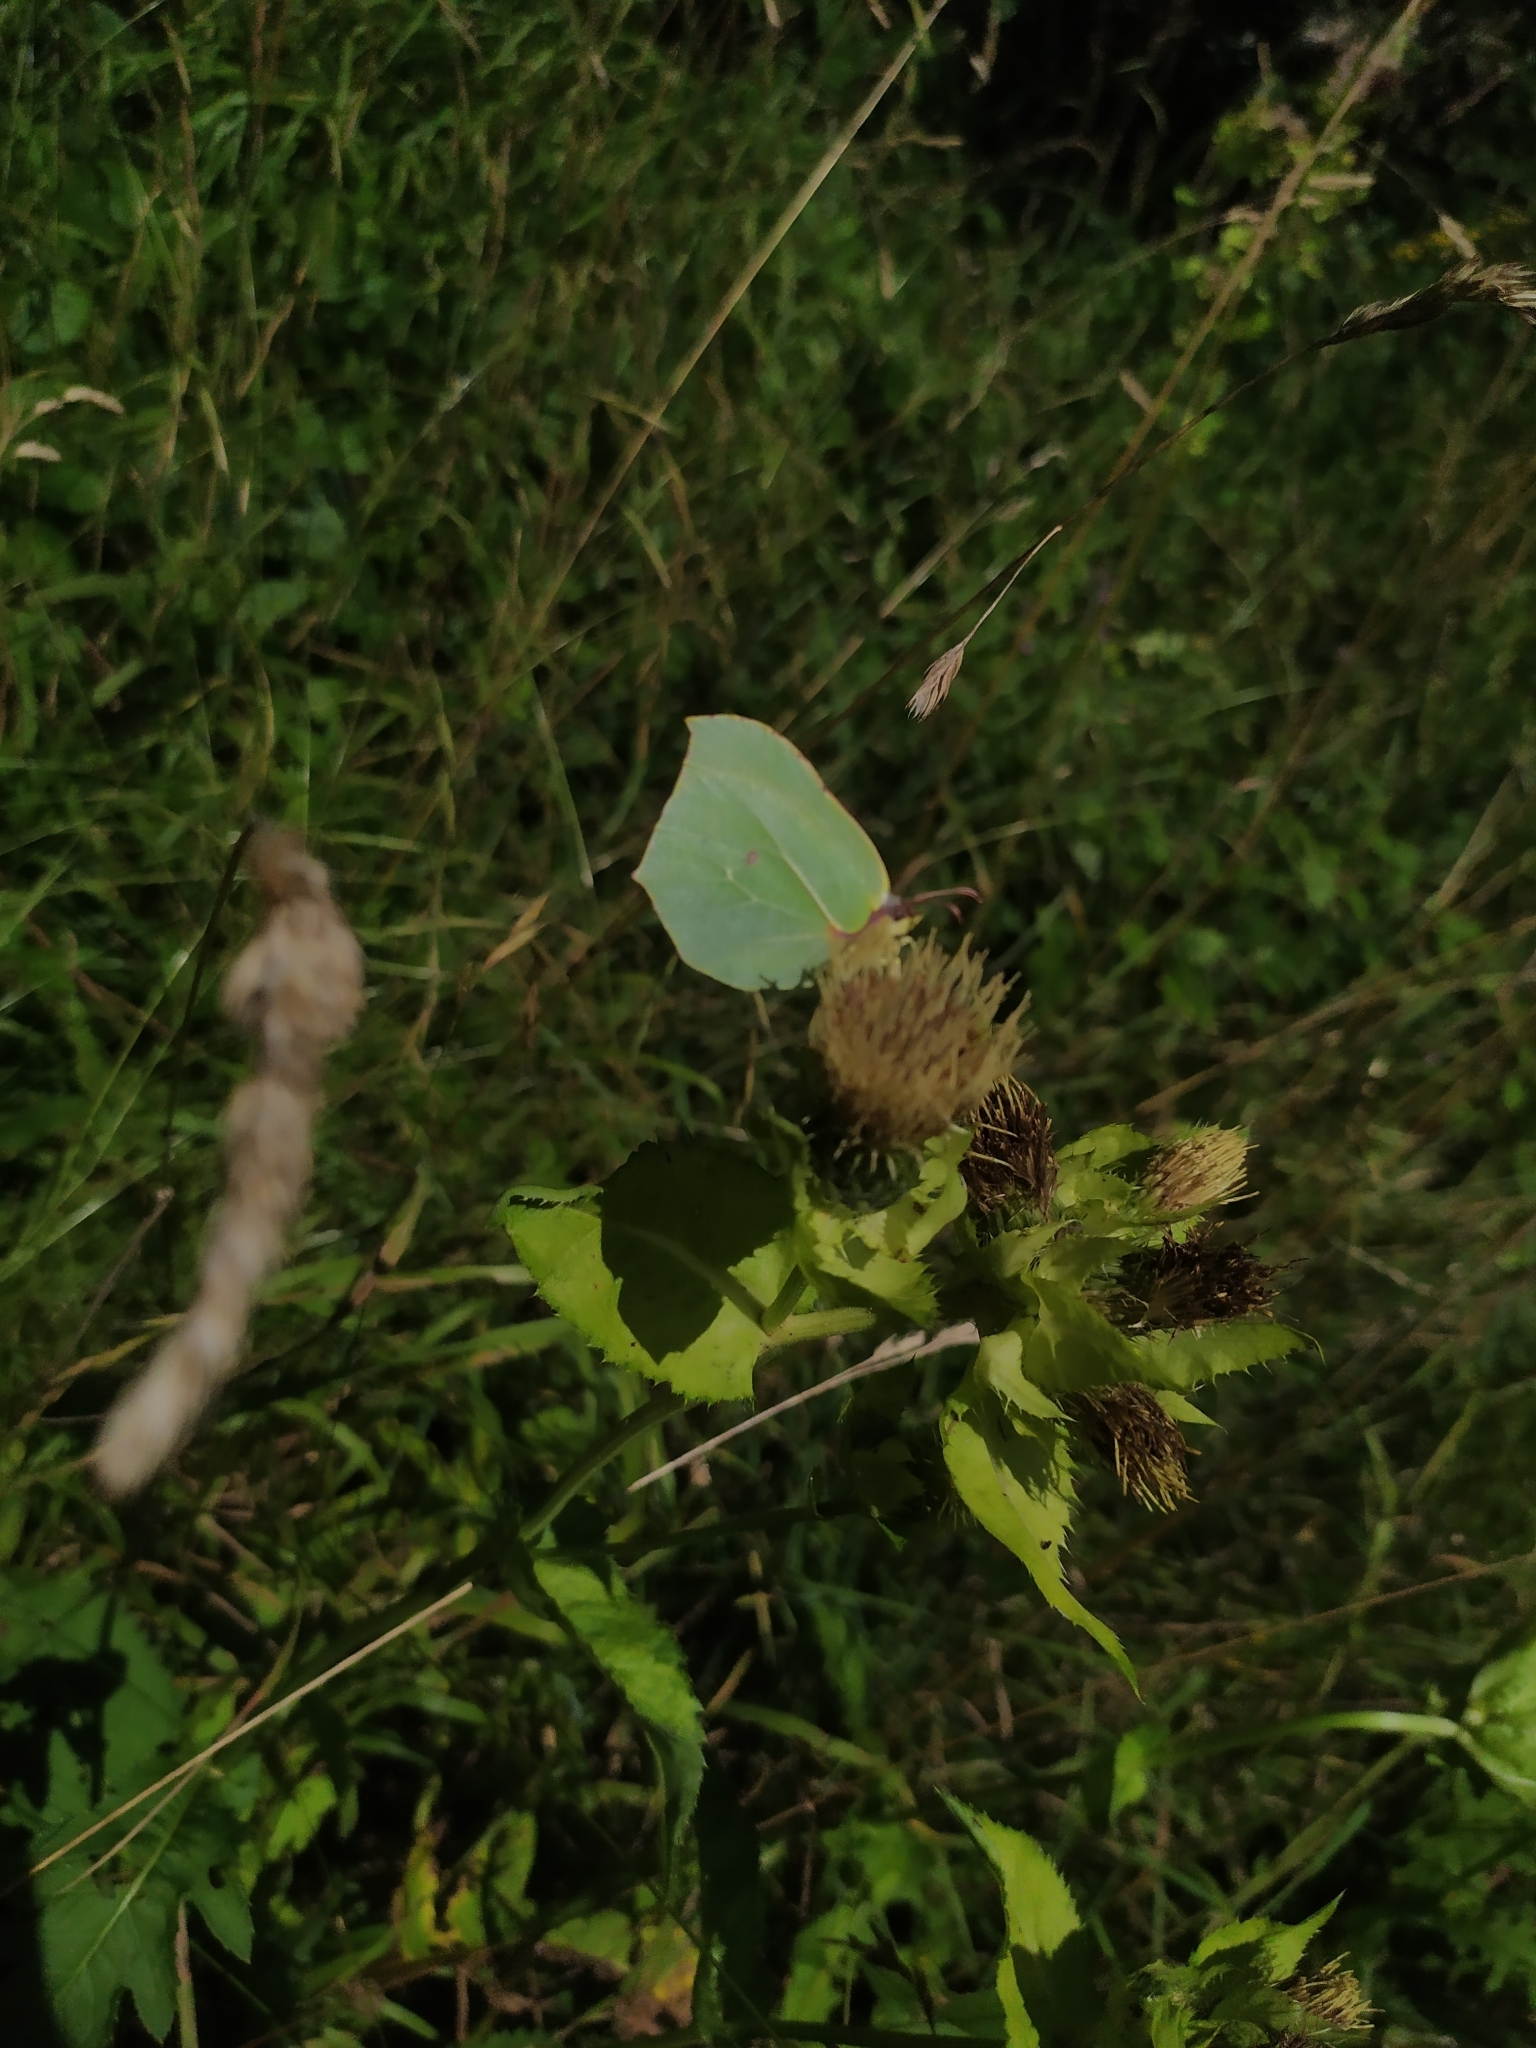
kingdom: Animalia
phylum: Arthropoda
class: Insecta
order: Lepidoptera
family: Pieridae
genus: Gonepteryx
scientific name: Gonepteryx rhamni
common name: Brimstone
